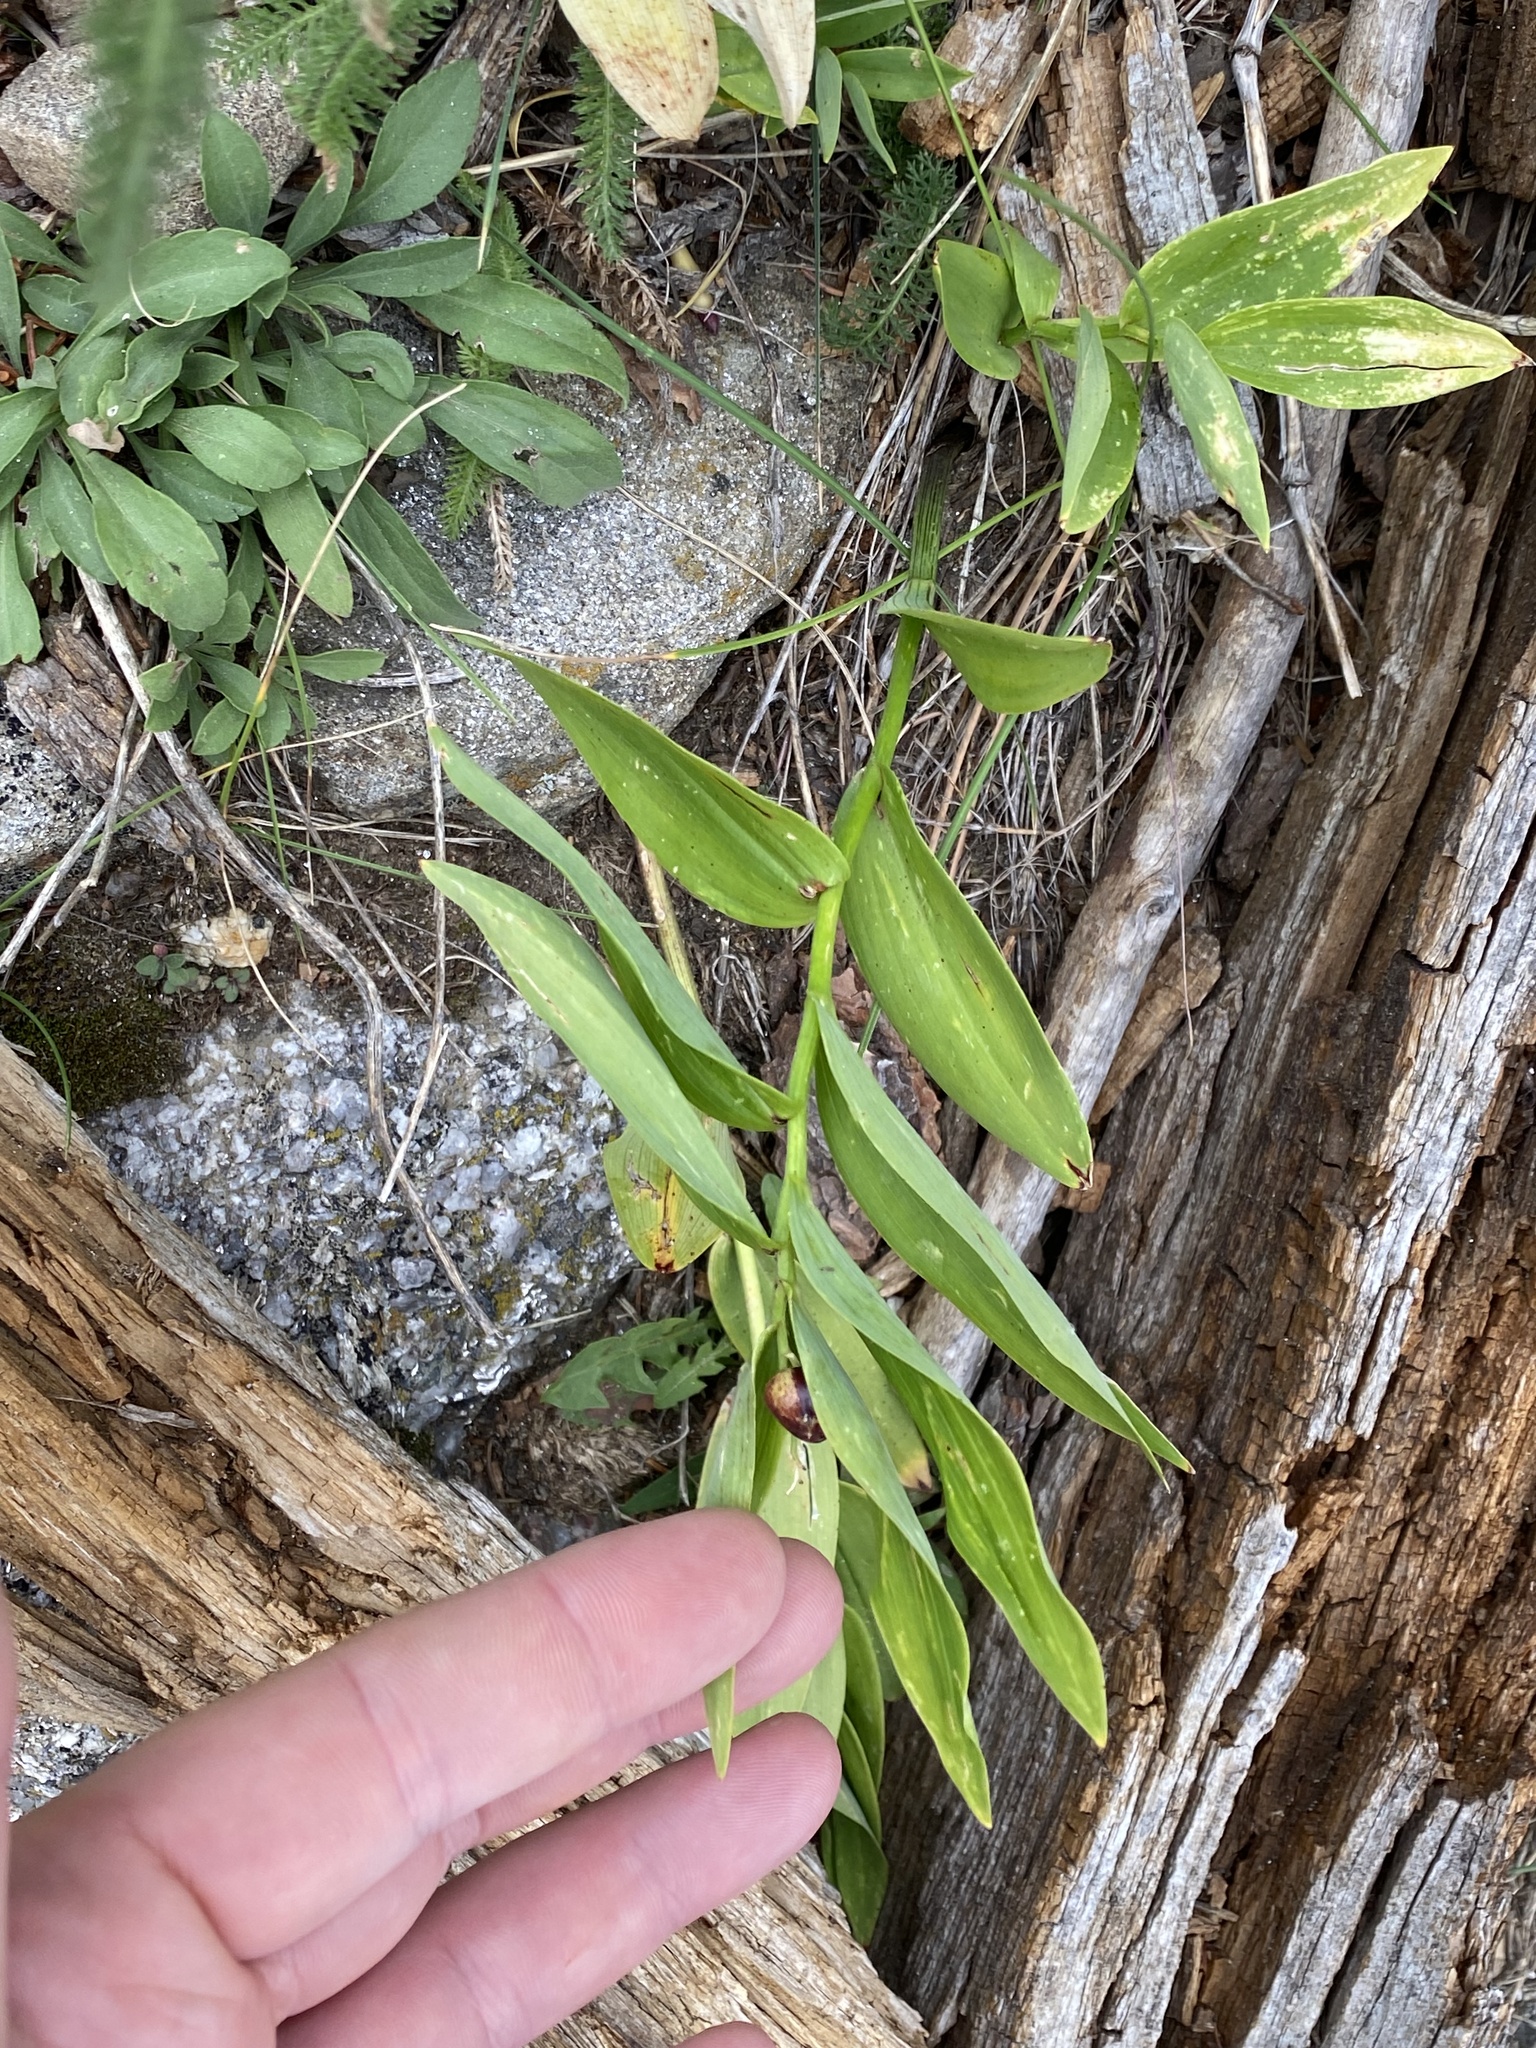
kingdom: Plantae
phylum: Tracheophyta
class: Liliopsida
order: Asparagales
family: Asparagaceae
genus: Maianthemum
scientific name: Maianthemum stellatum
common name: Little false solomon's seal
